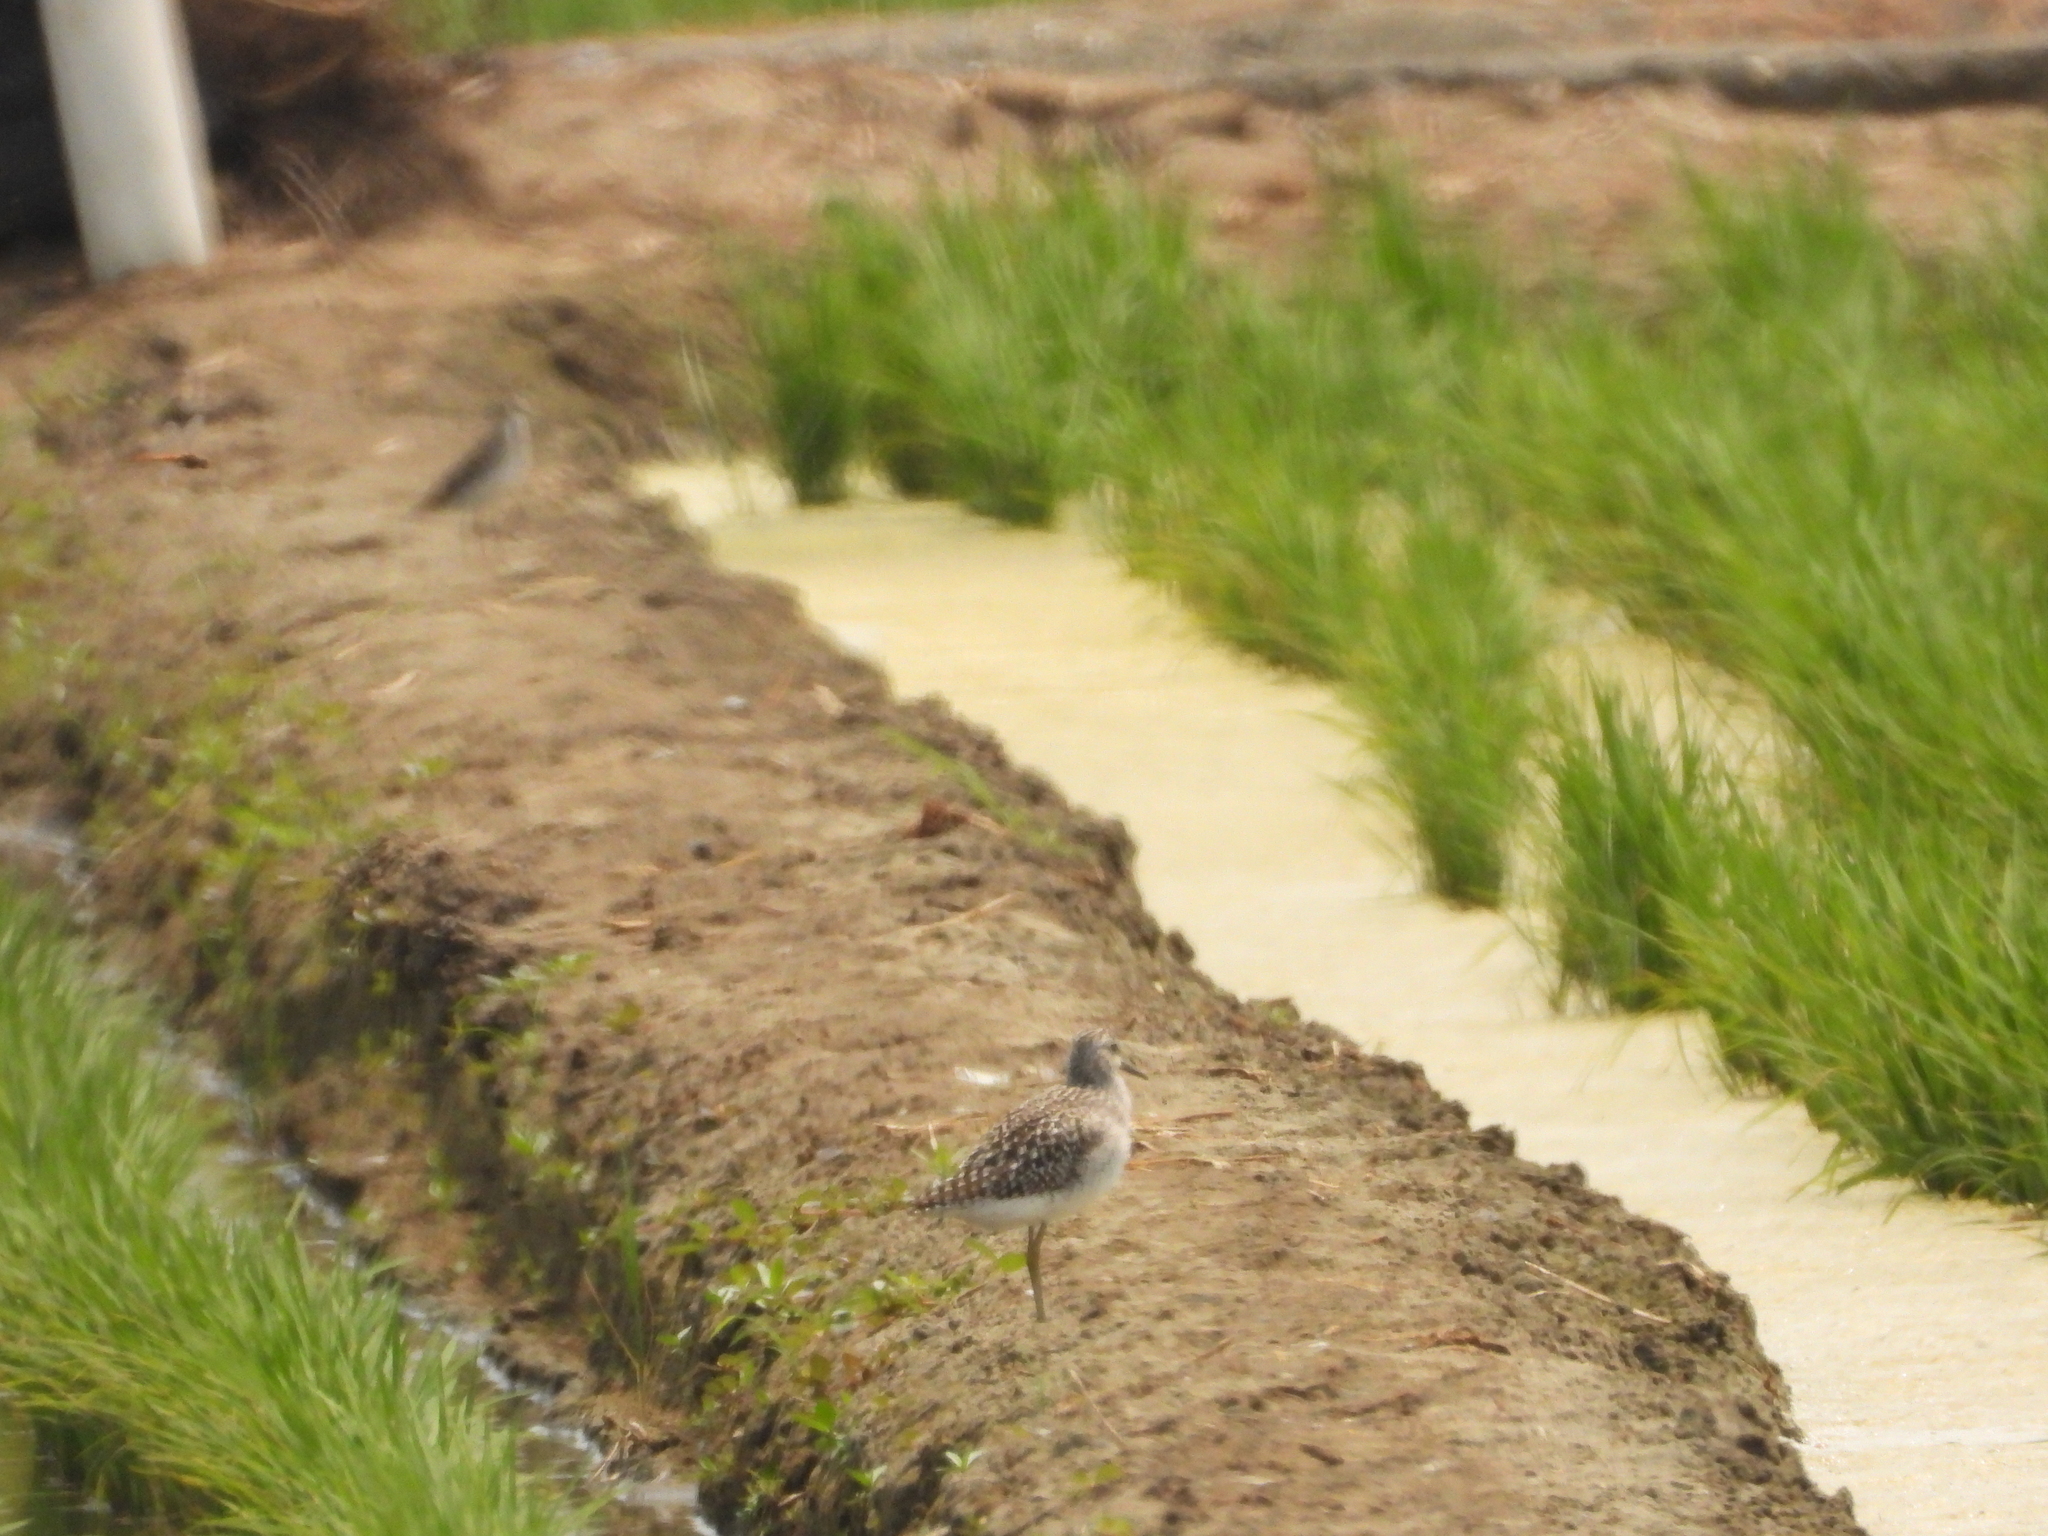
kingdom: Animalia
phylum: Chordata
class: Aves
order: Charadriiformes
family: Scolopacidae
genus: Tringa
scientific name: Tringa glareola
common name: Wood sandpiper
